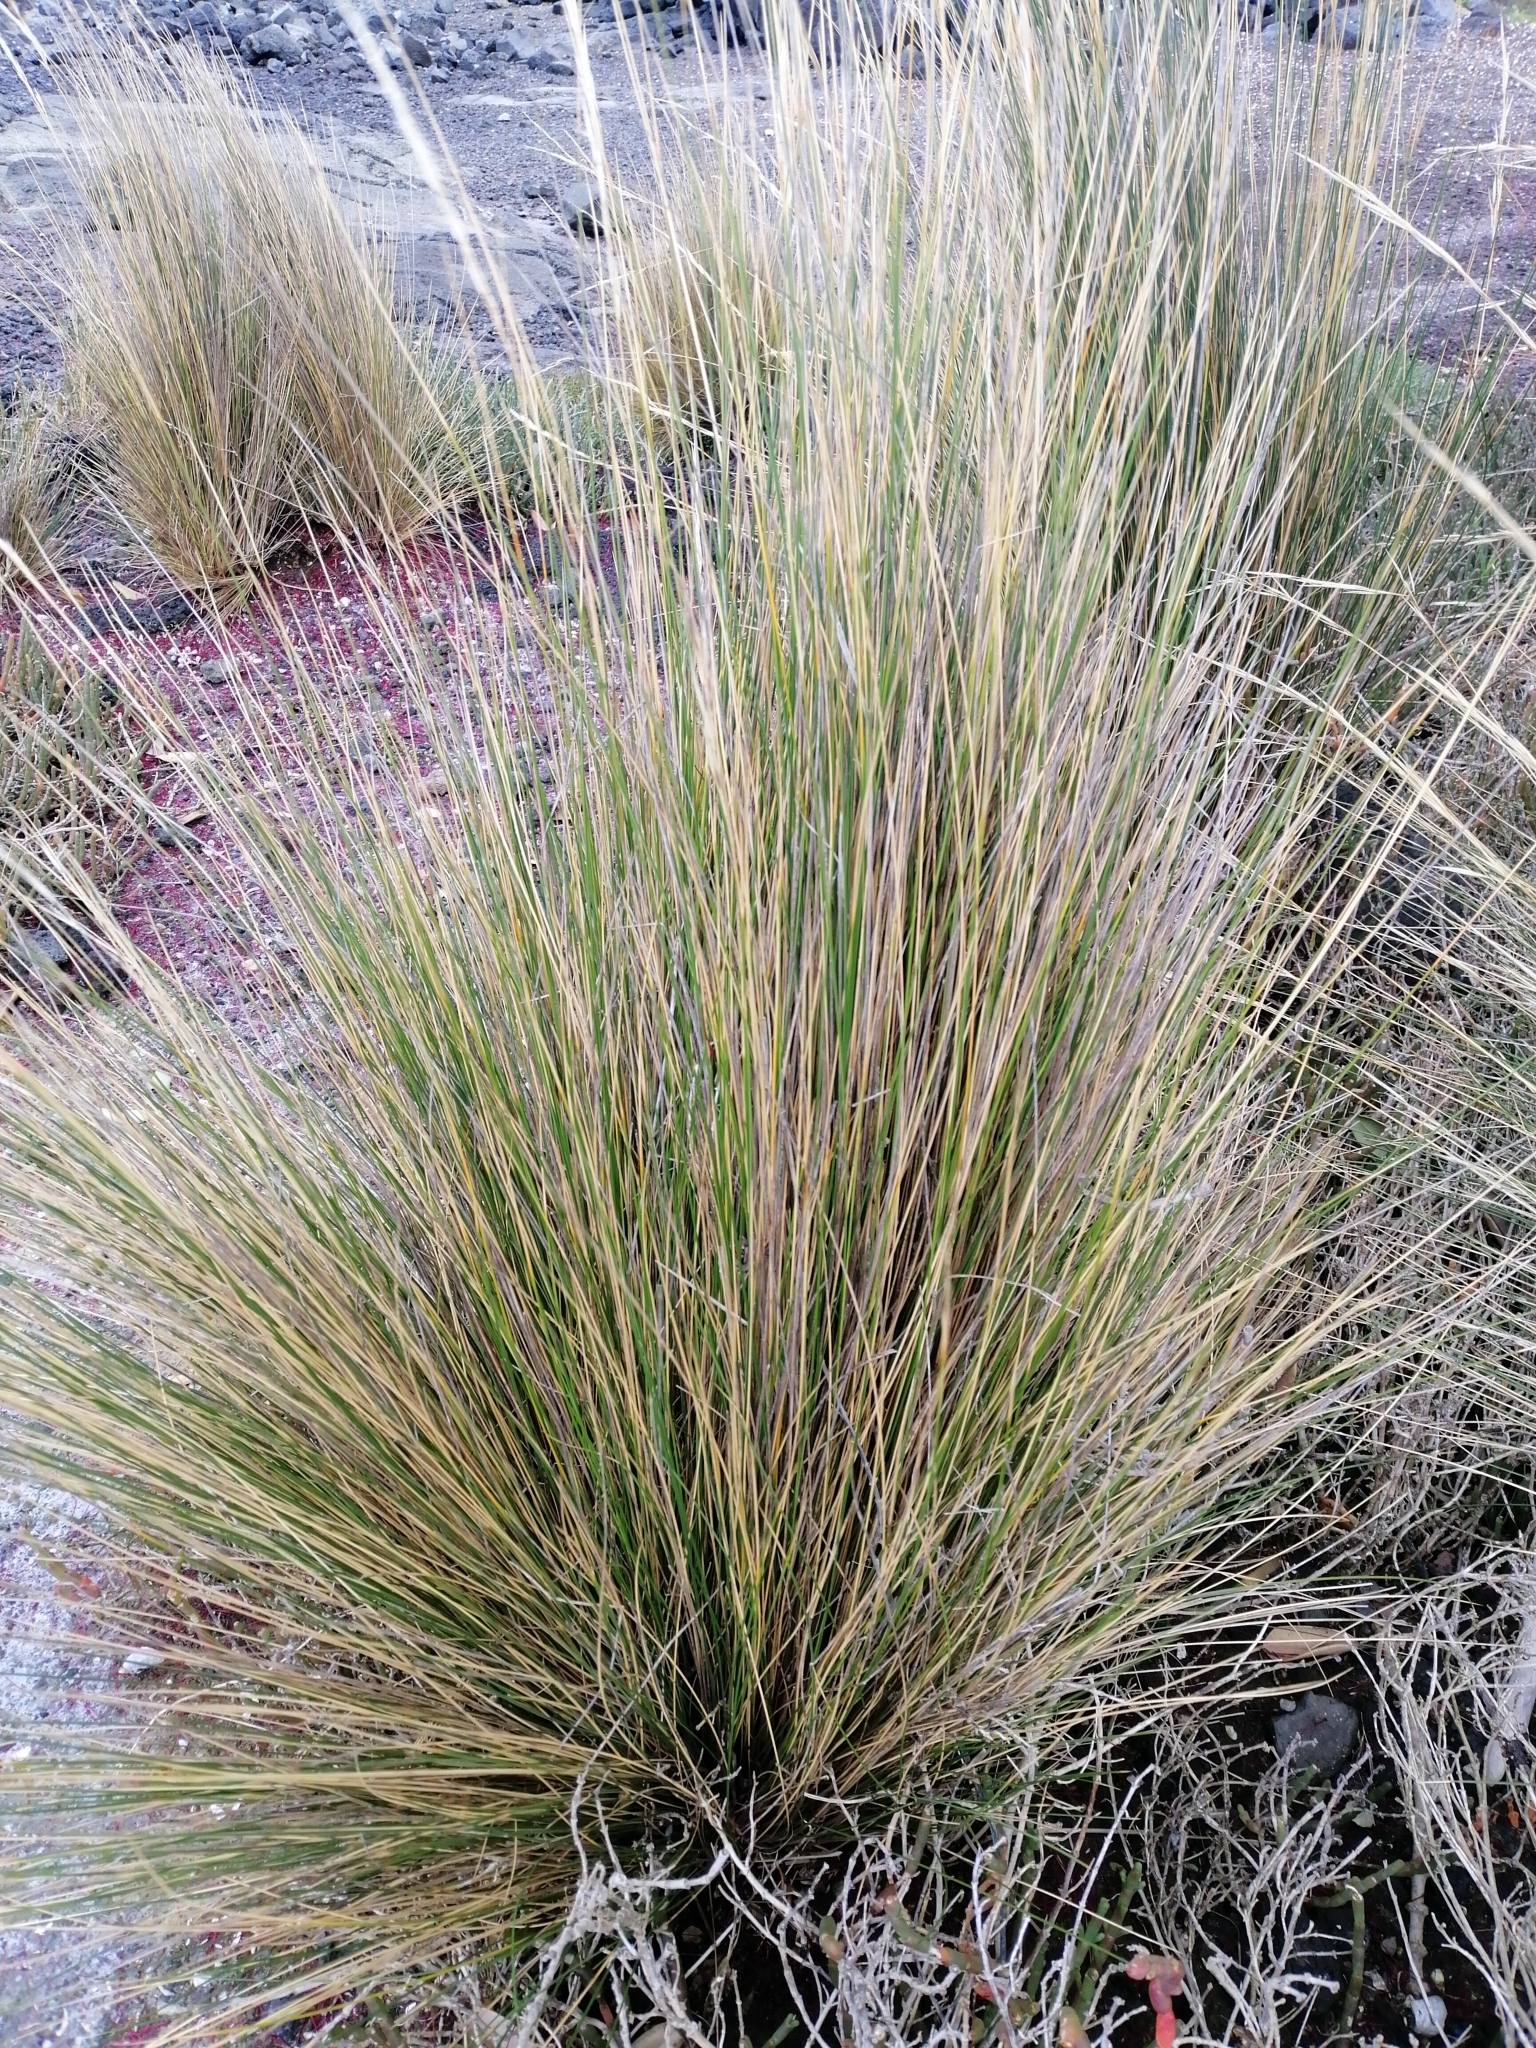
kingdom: Plantae
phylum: Tracheophyta
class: Liliopsida
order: Poales
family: Poaceae
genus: Austrostipa
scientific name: Austrostipa stipoides
